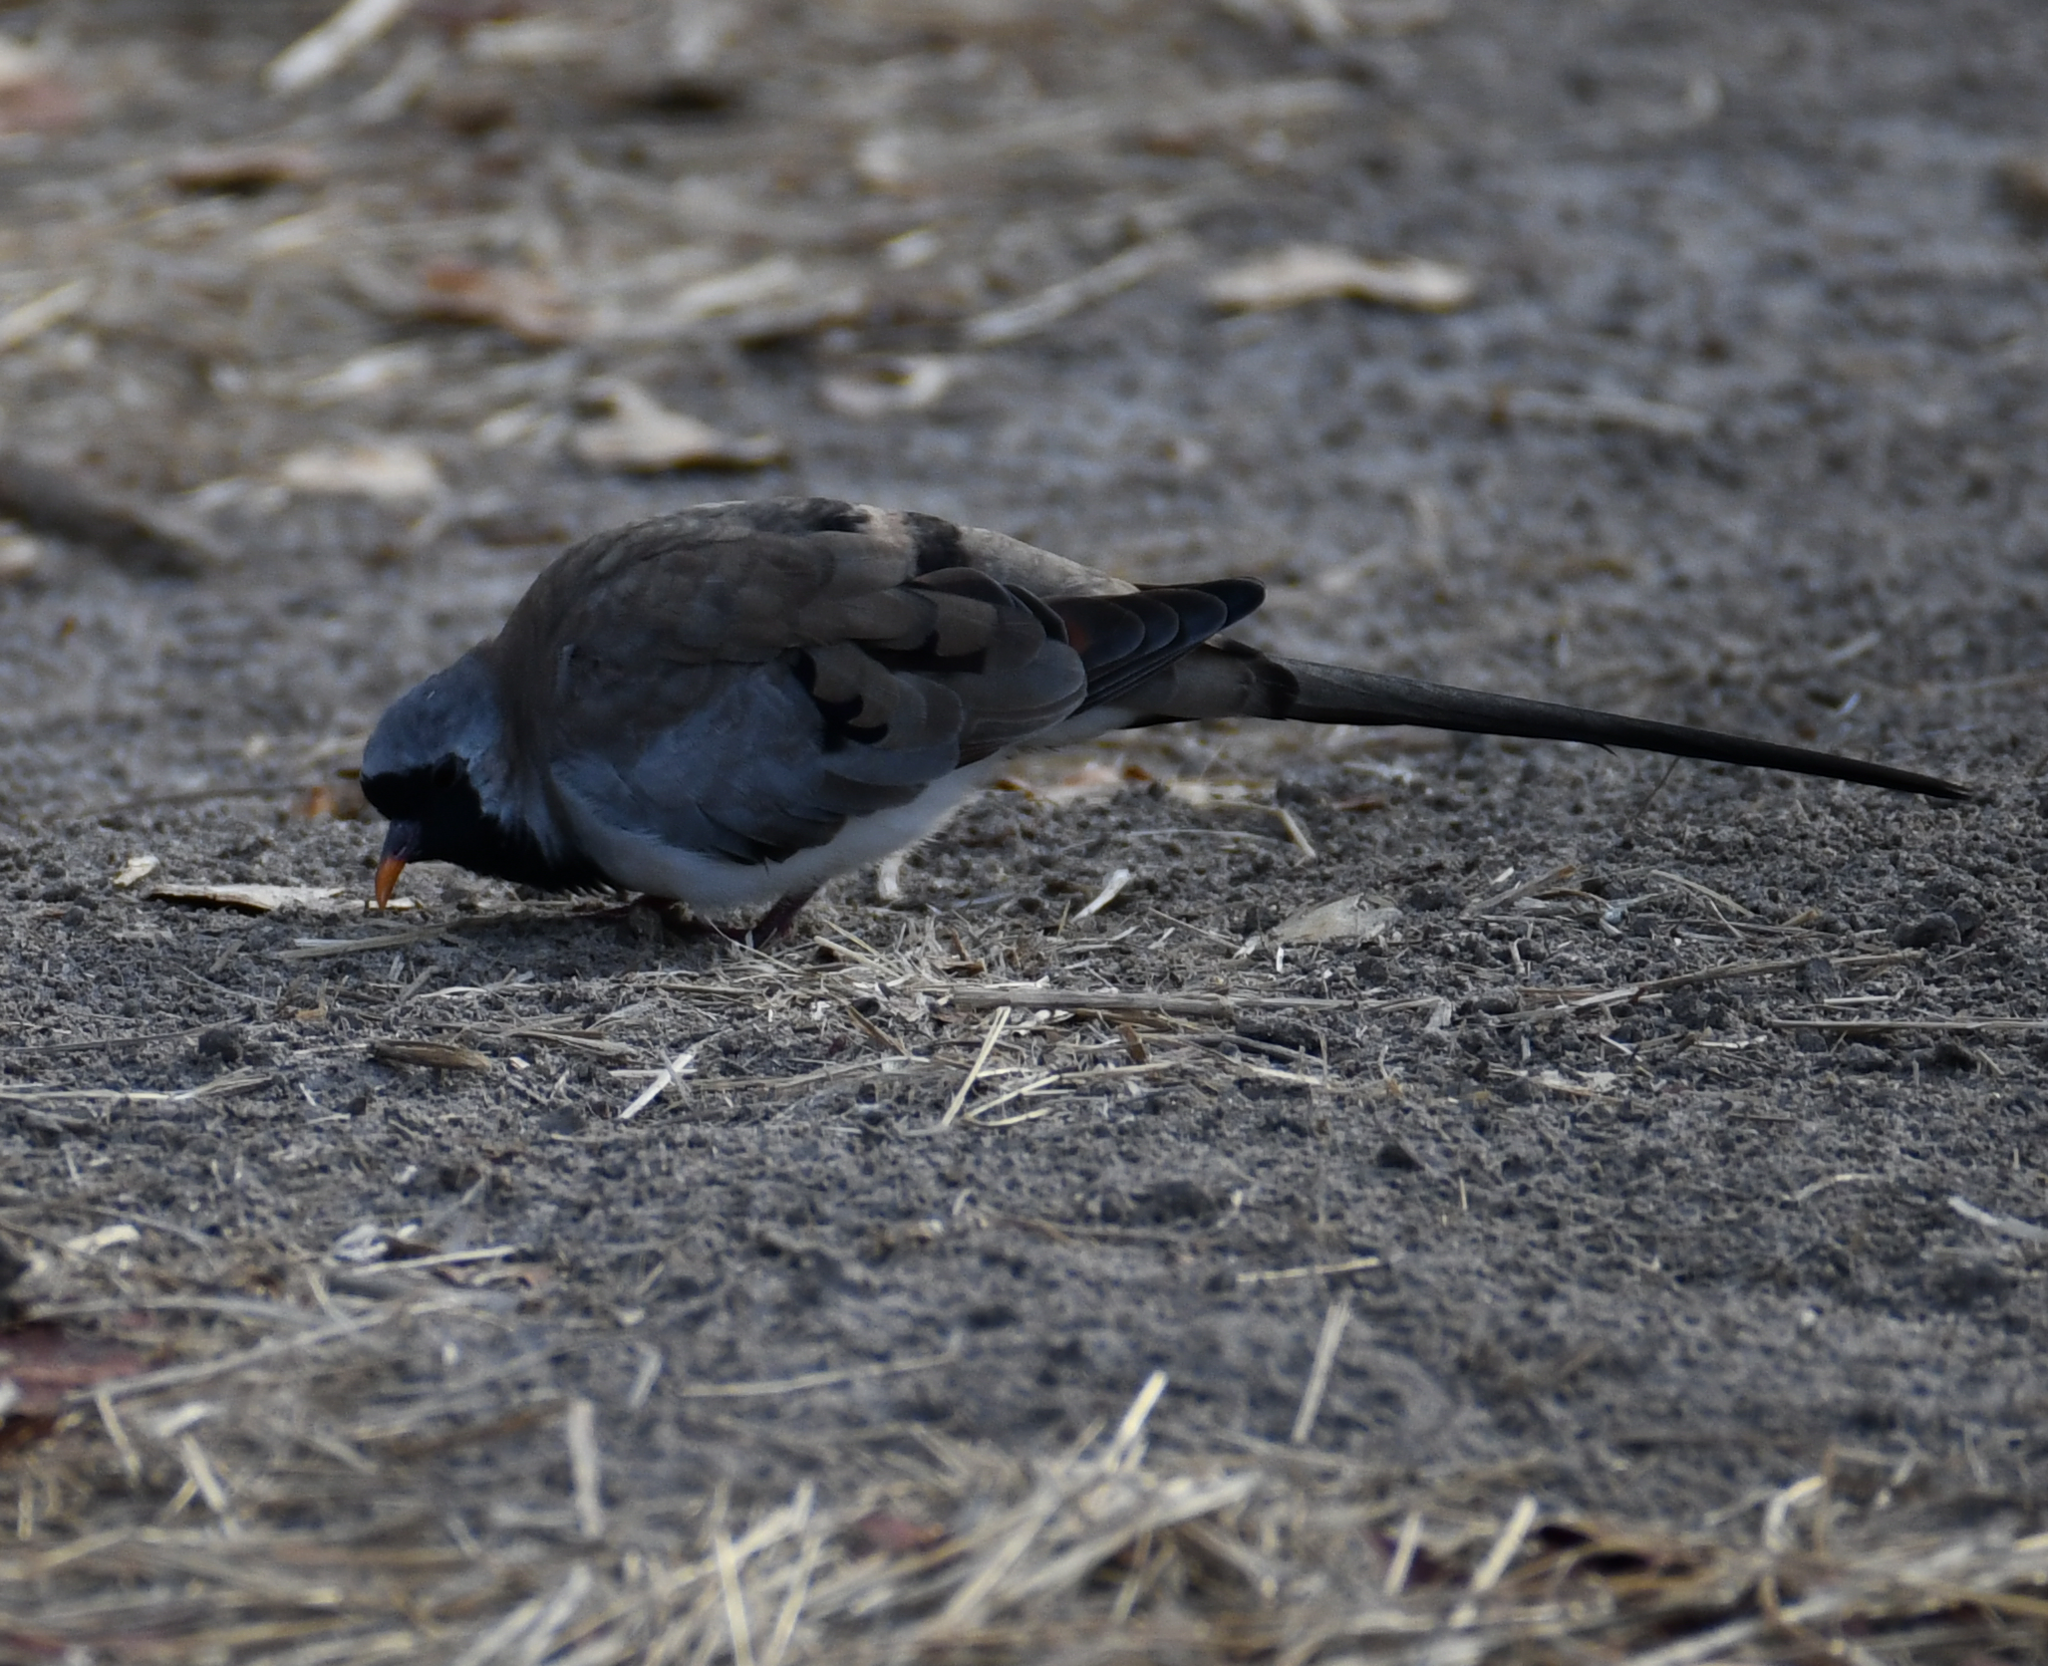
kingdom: Animalia
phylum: Chordata
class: Aves
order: Columbiformes
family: Columbidae
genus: Oena
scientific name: Oena capensis
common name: Namaqua dove
